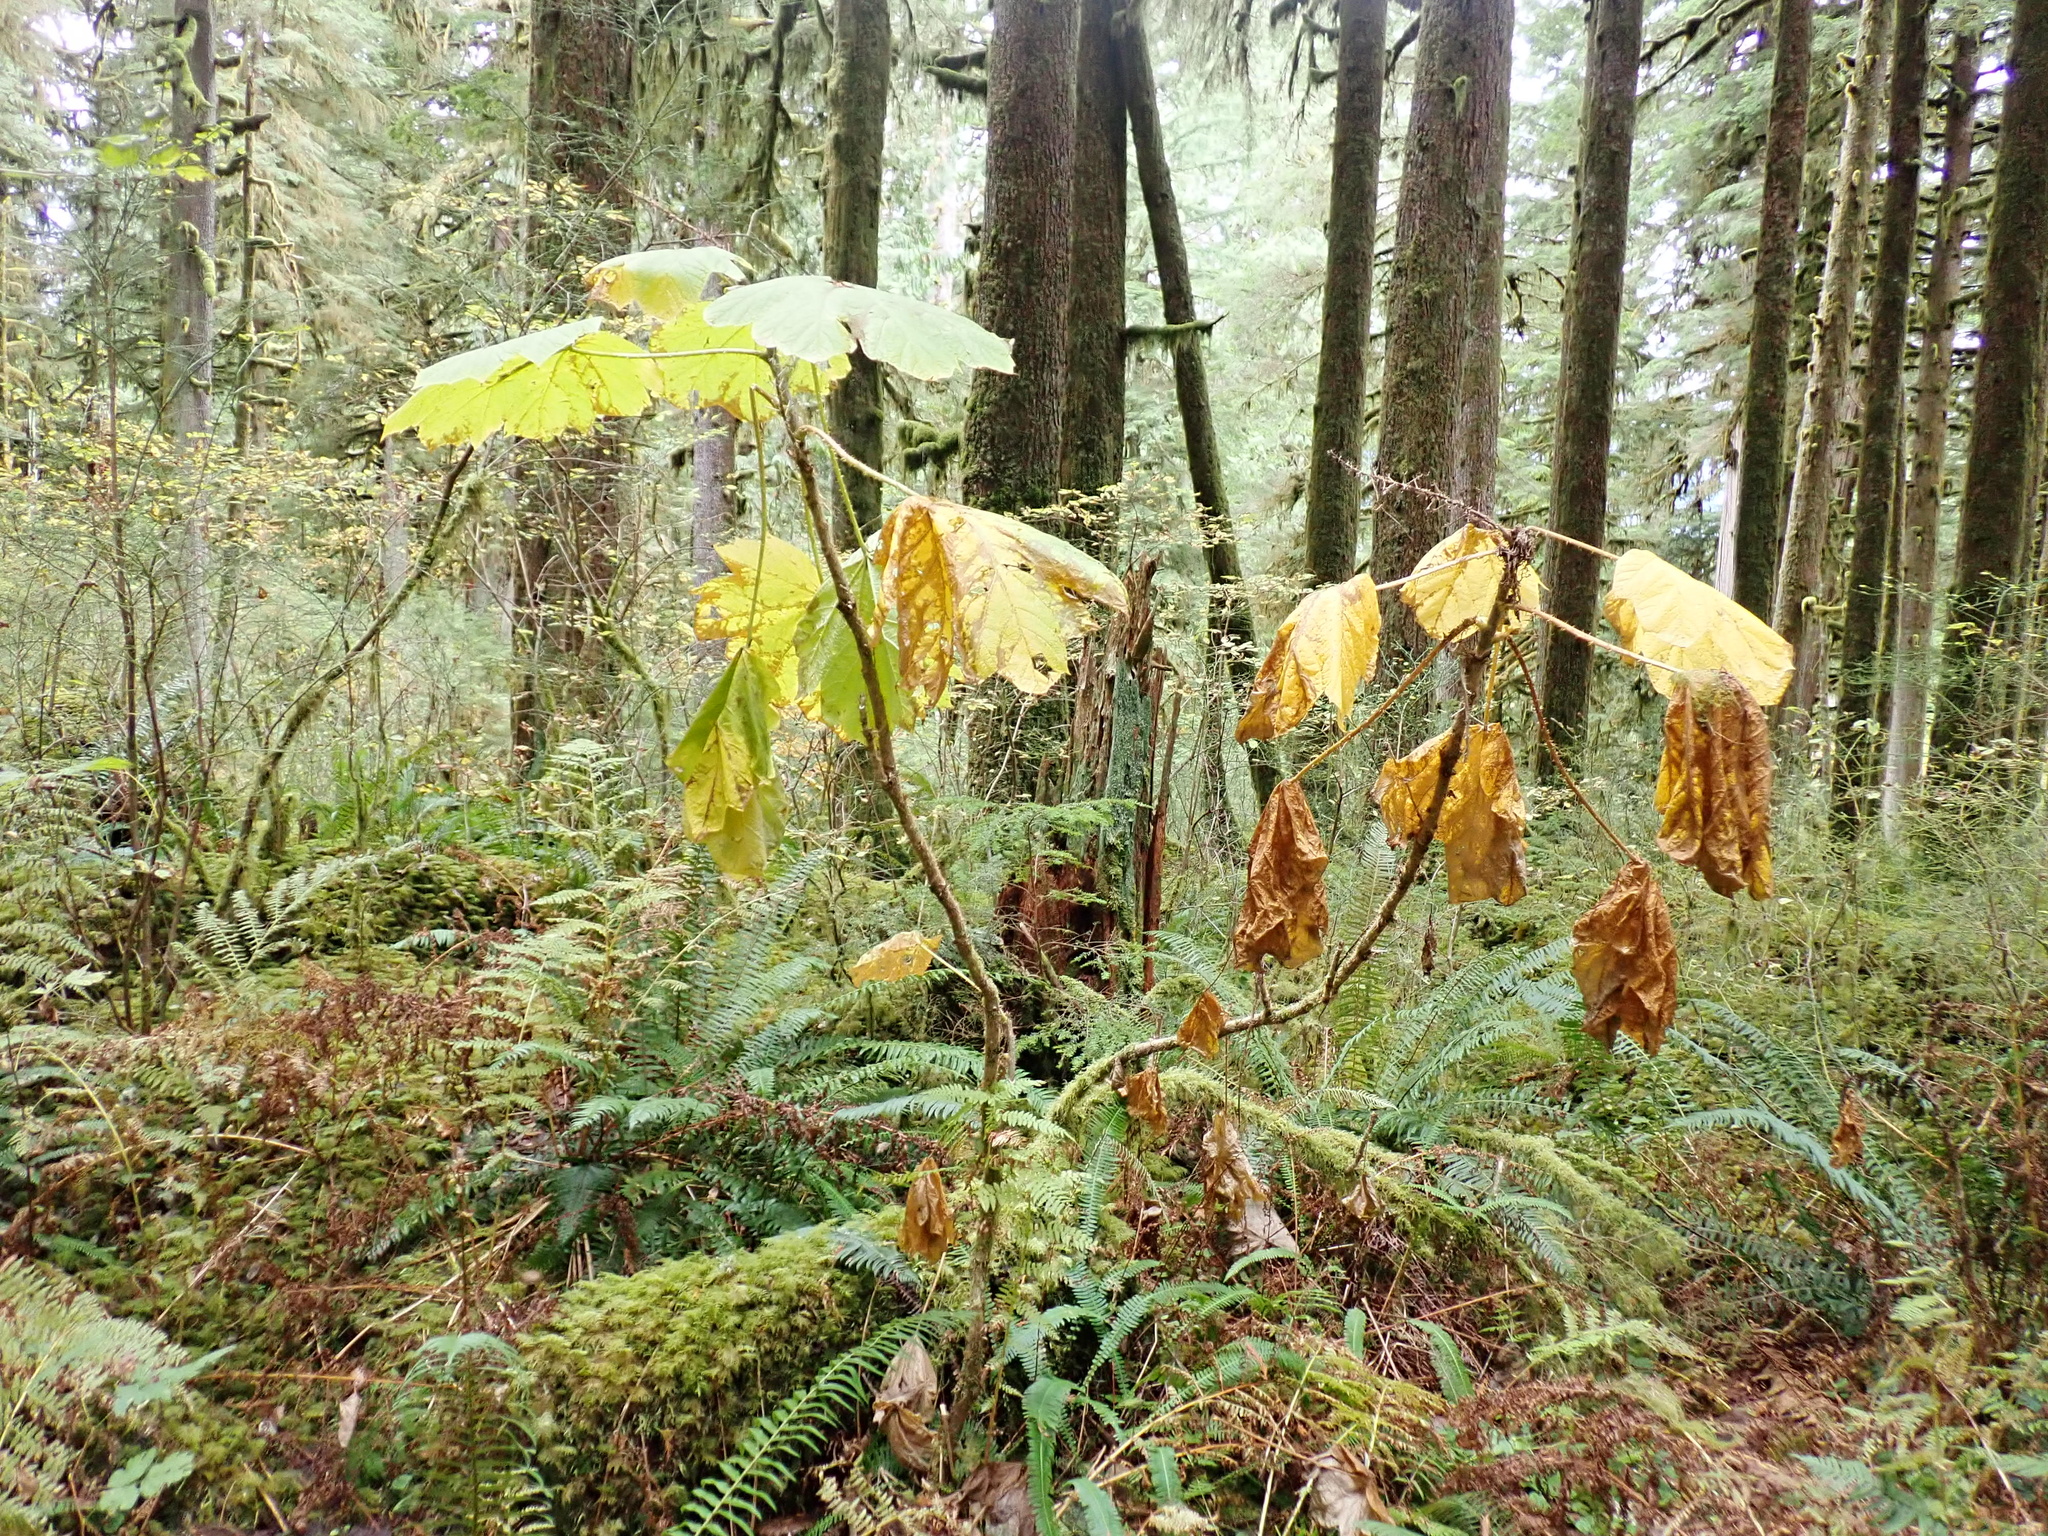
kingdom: Plantae
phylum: Tracheophyta
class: Magnoliopsida
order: Apiales
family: Araliaceae
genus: Oplopanax
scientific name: Oplopanax horridus
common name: Devil's walking-stick
